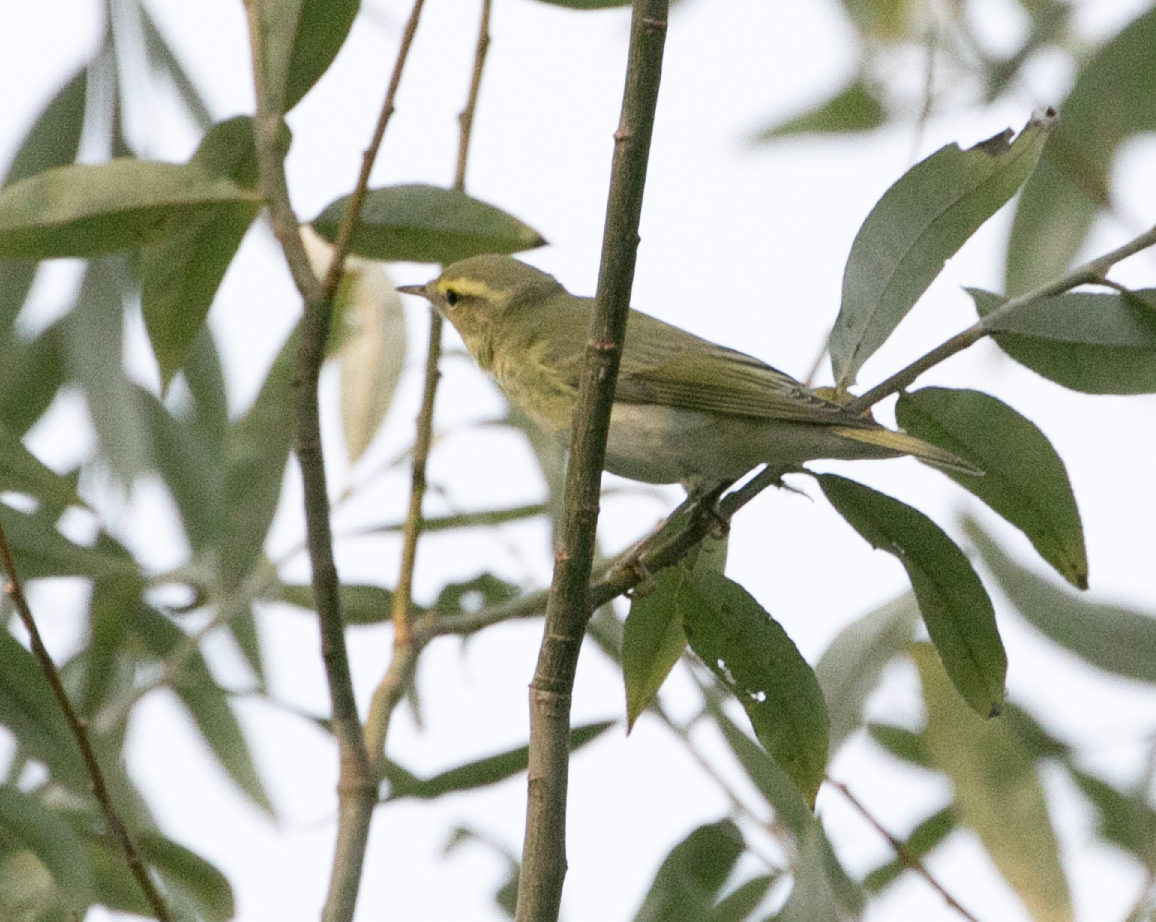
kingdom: Animalia
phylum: Chordata
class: Aves
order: Passeriformes
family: Phylloscopidae
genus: Phylloscopus
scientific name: Phylloscopus sibillatrix
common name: Wood warbler
